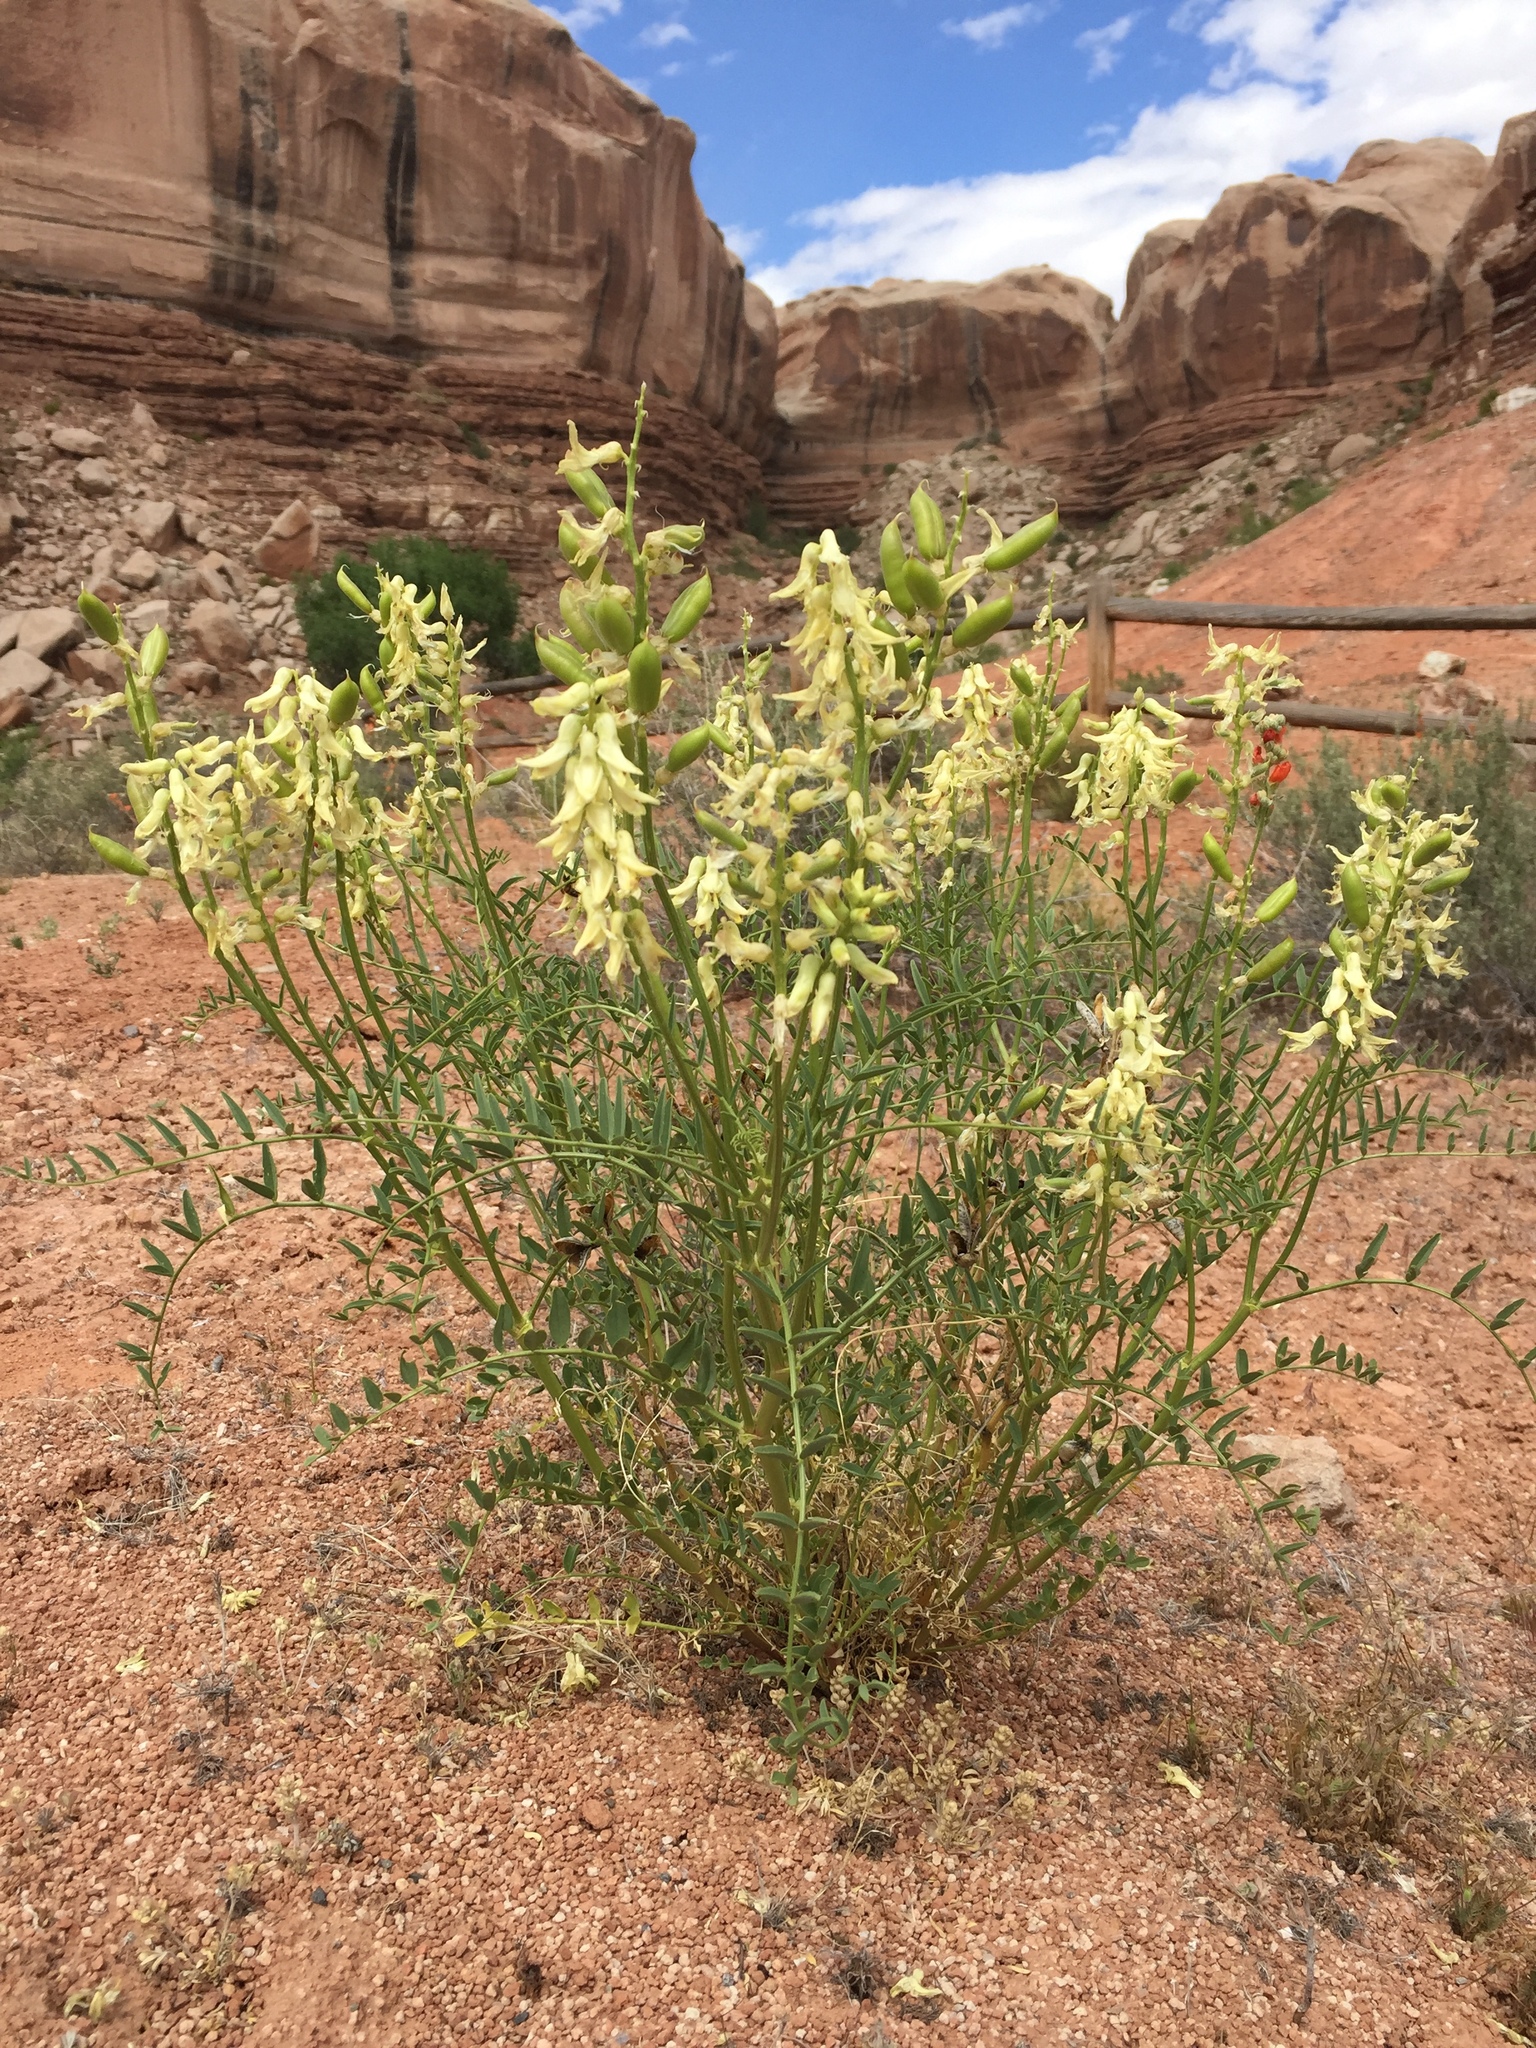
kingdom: Plantae
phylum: Tracheophyta
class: Magnoliopsida
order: Fabales
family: Fabaceae
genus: Astragalus
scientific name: Astragalus praelongus
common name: Stinking milk-vetch
